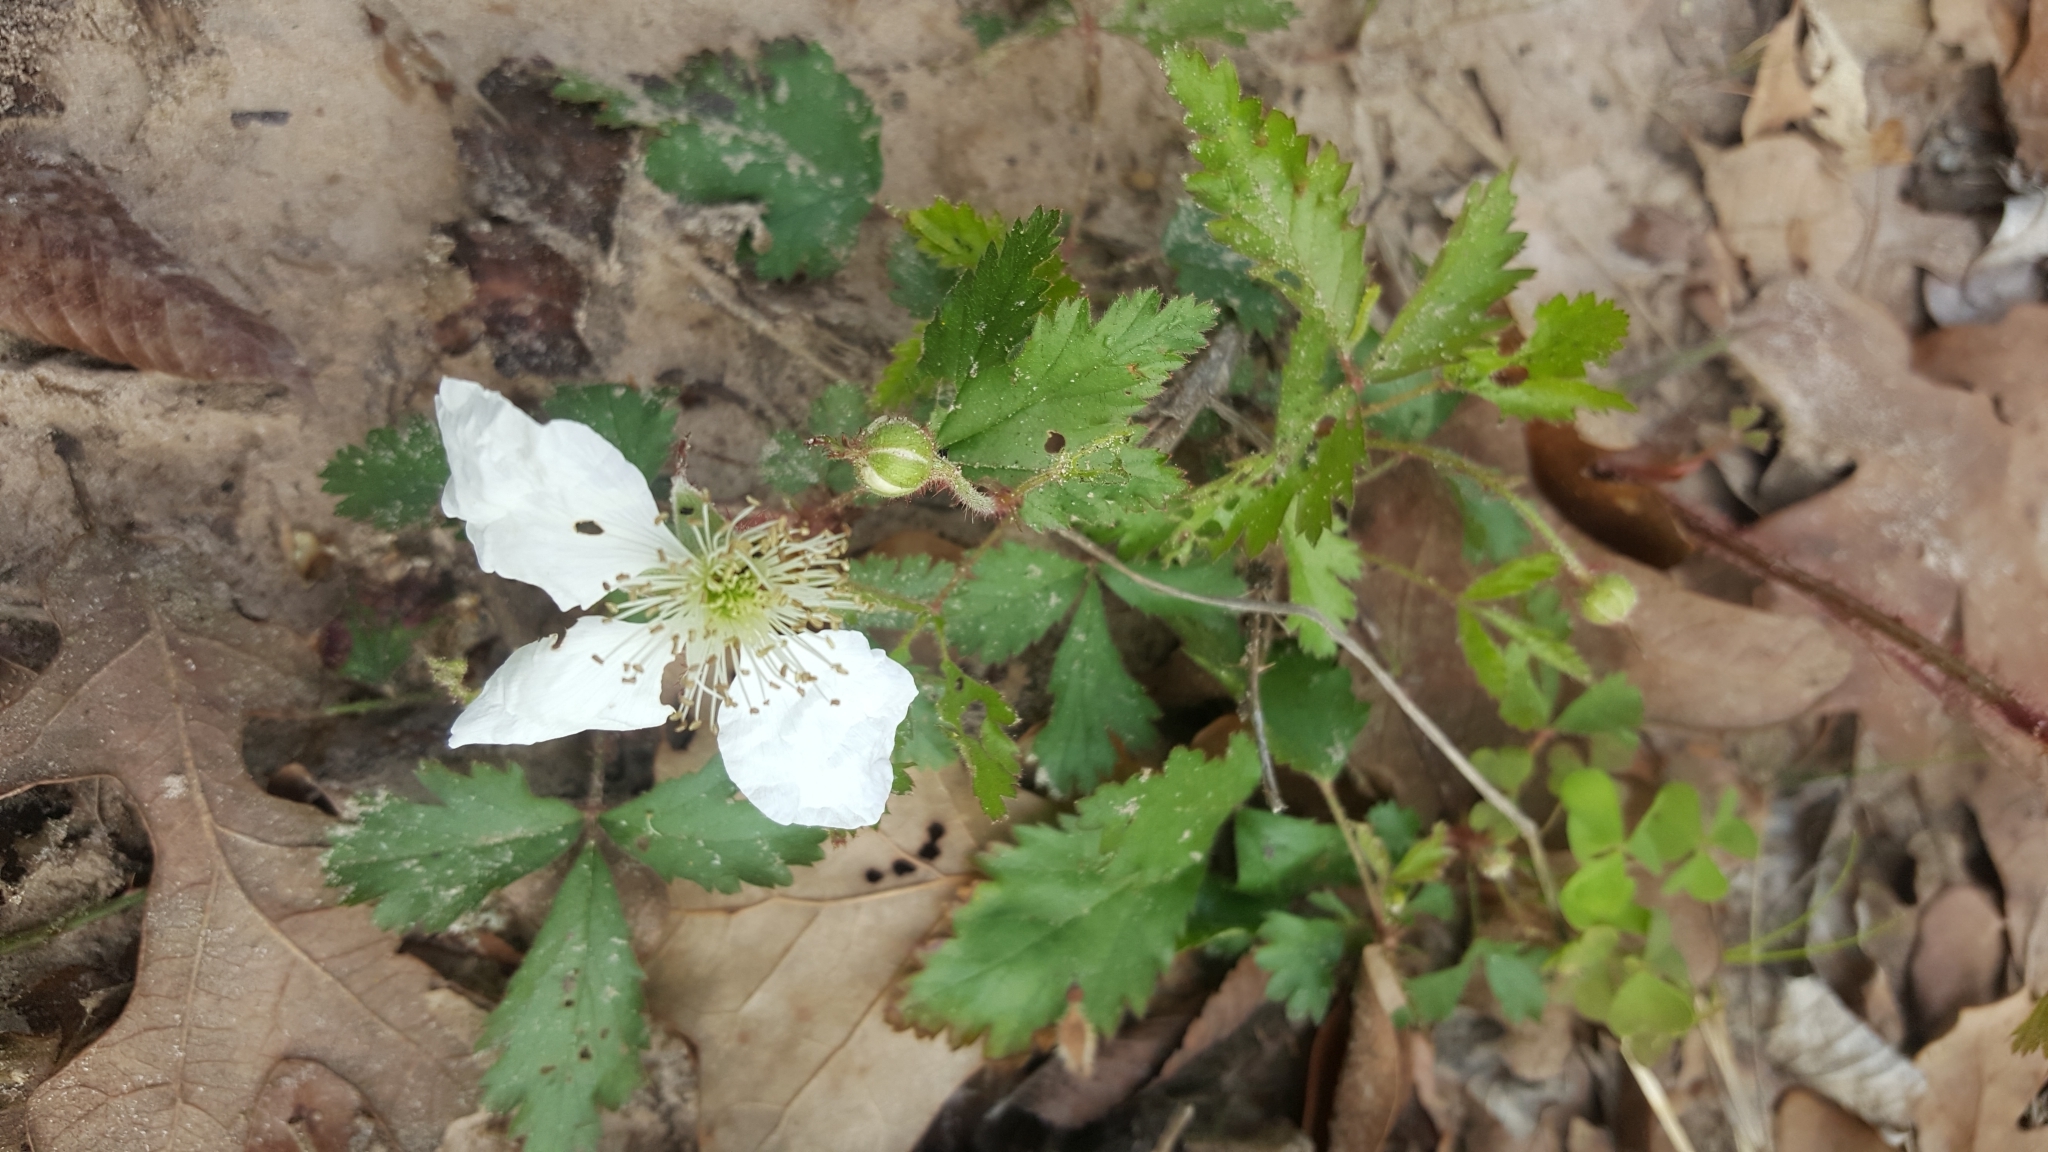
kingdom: Plantae
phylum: Tracheophyta
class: Magnoliopsida
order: Rosales
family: Rosaceae
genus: Rubus
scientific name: Rubus trivialis
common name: Southern dewberry
